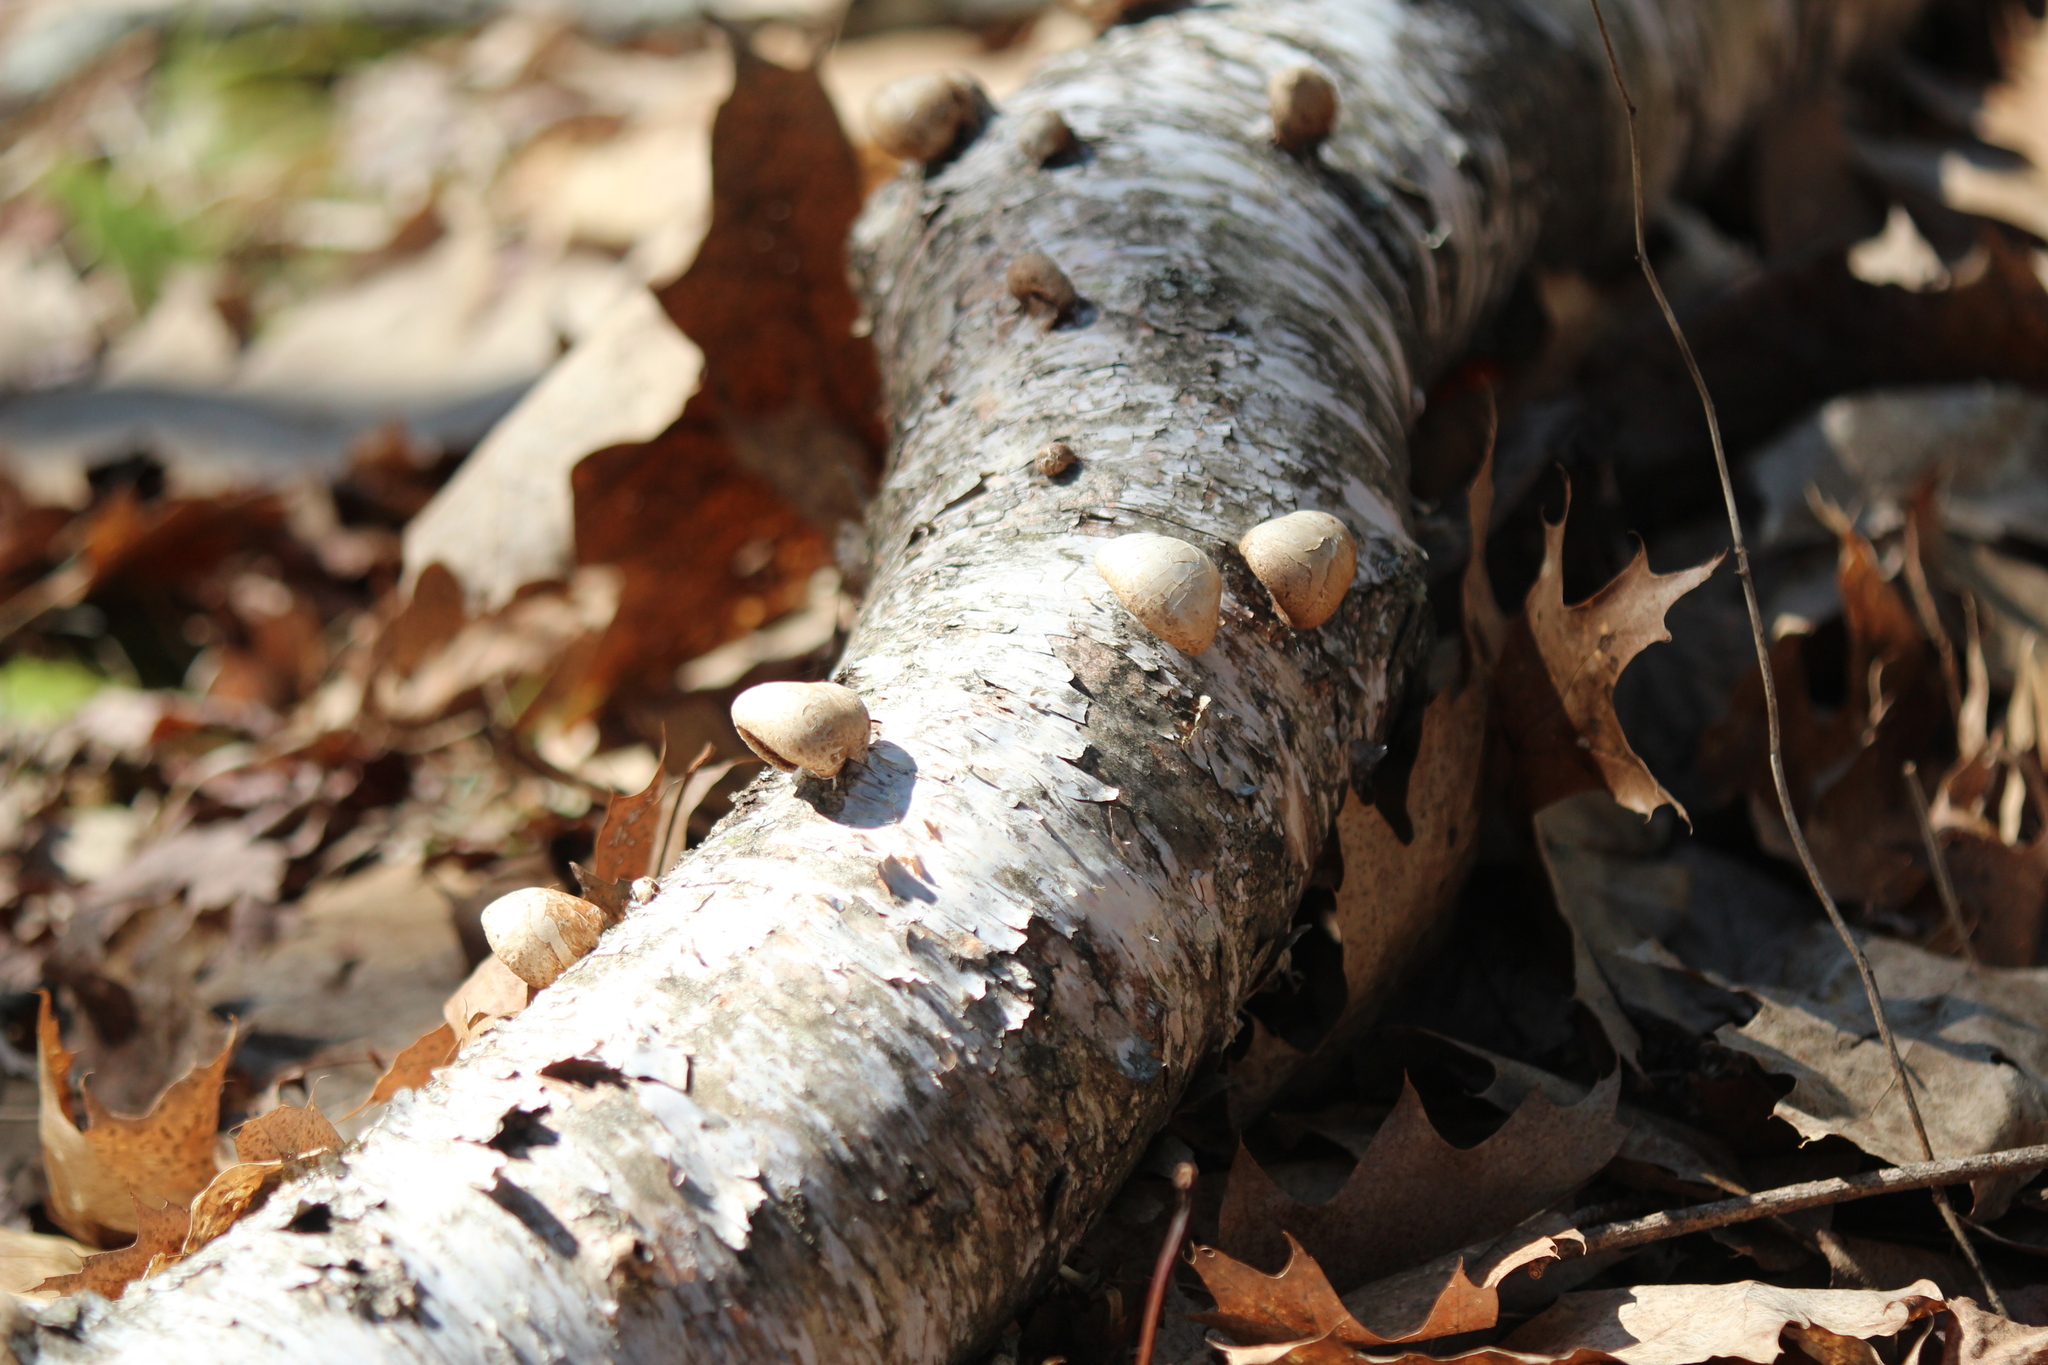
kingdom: Fungi
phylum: Basidiomycota
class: Agaricomycetes
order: Polyporales
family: Fomitopsidaceae
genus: Fomitopsis
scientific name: Fomitopsis betulina
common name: Birch polypore
